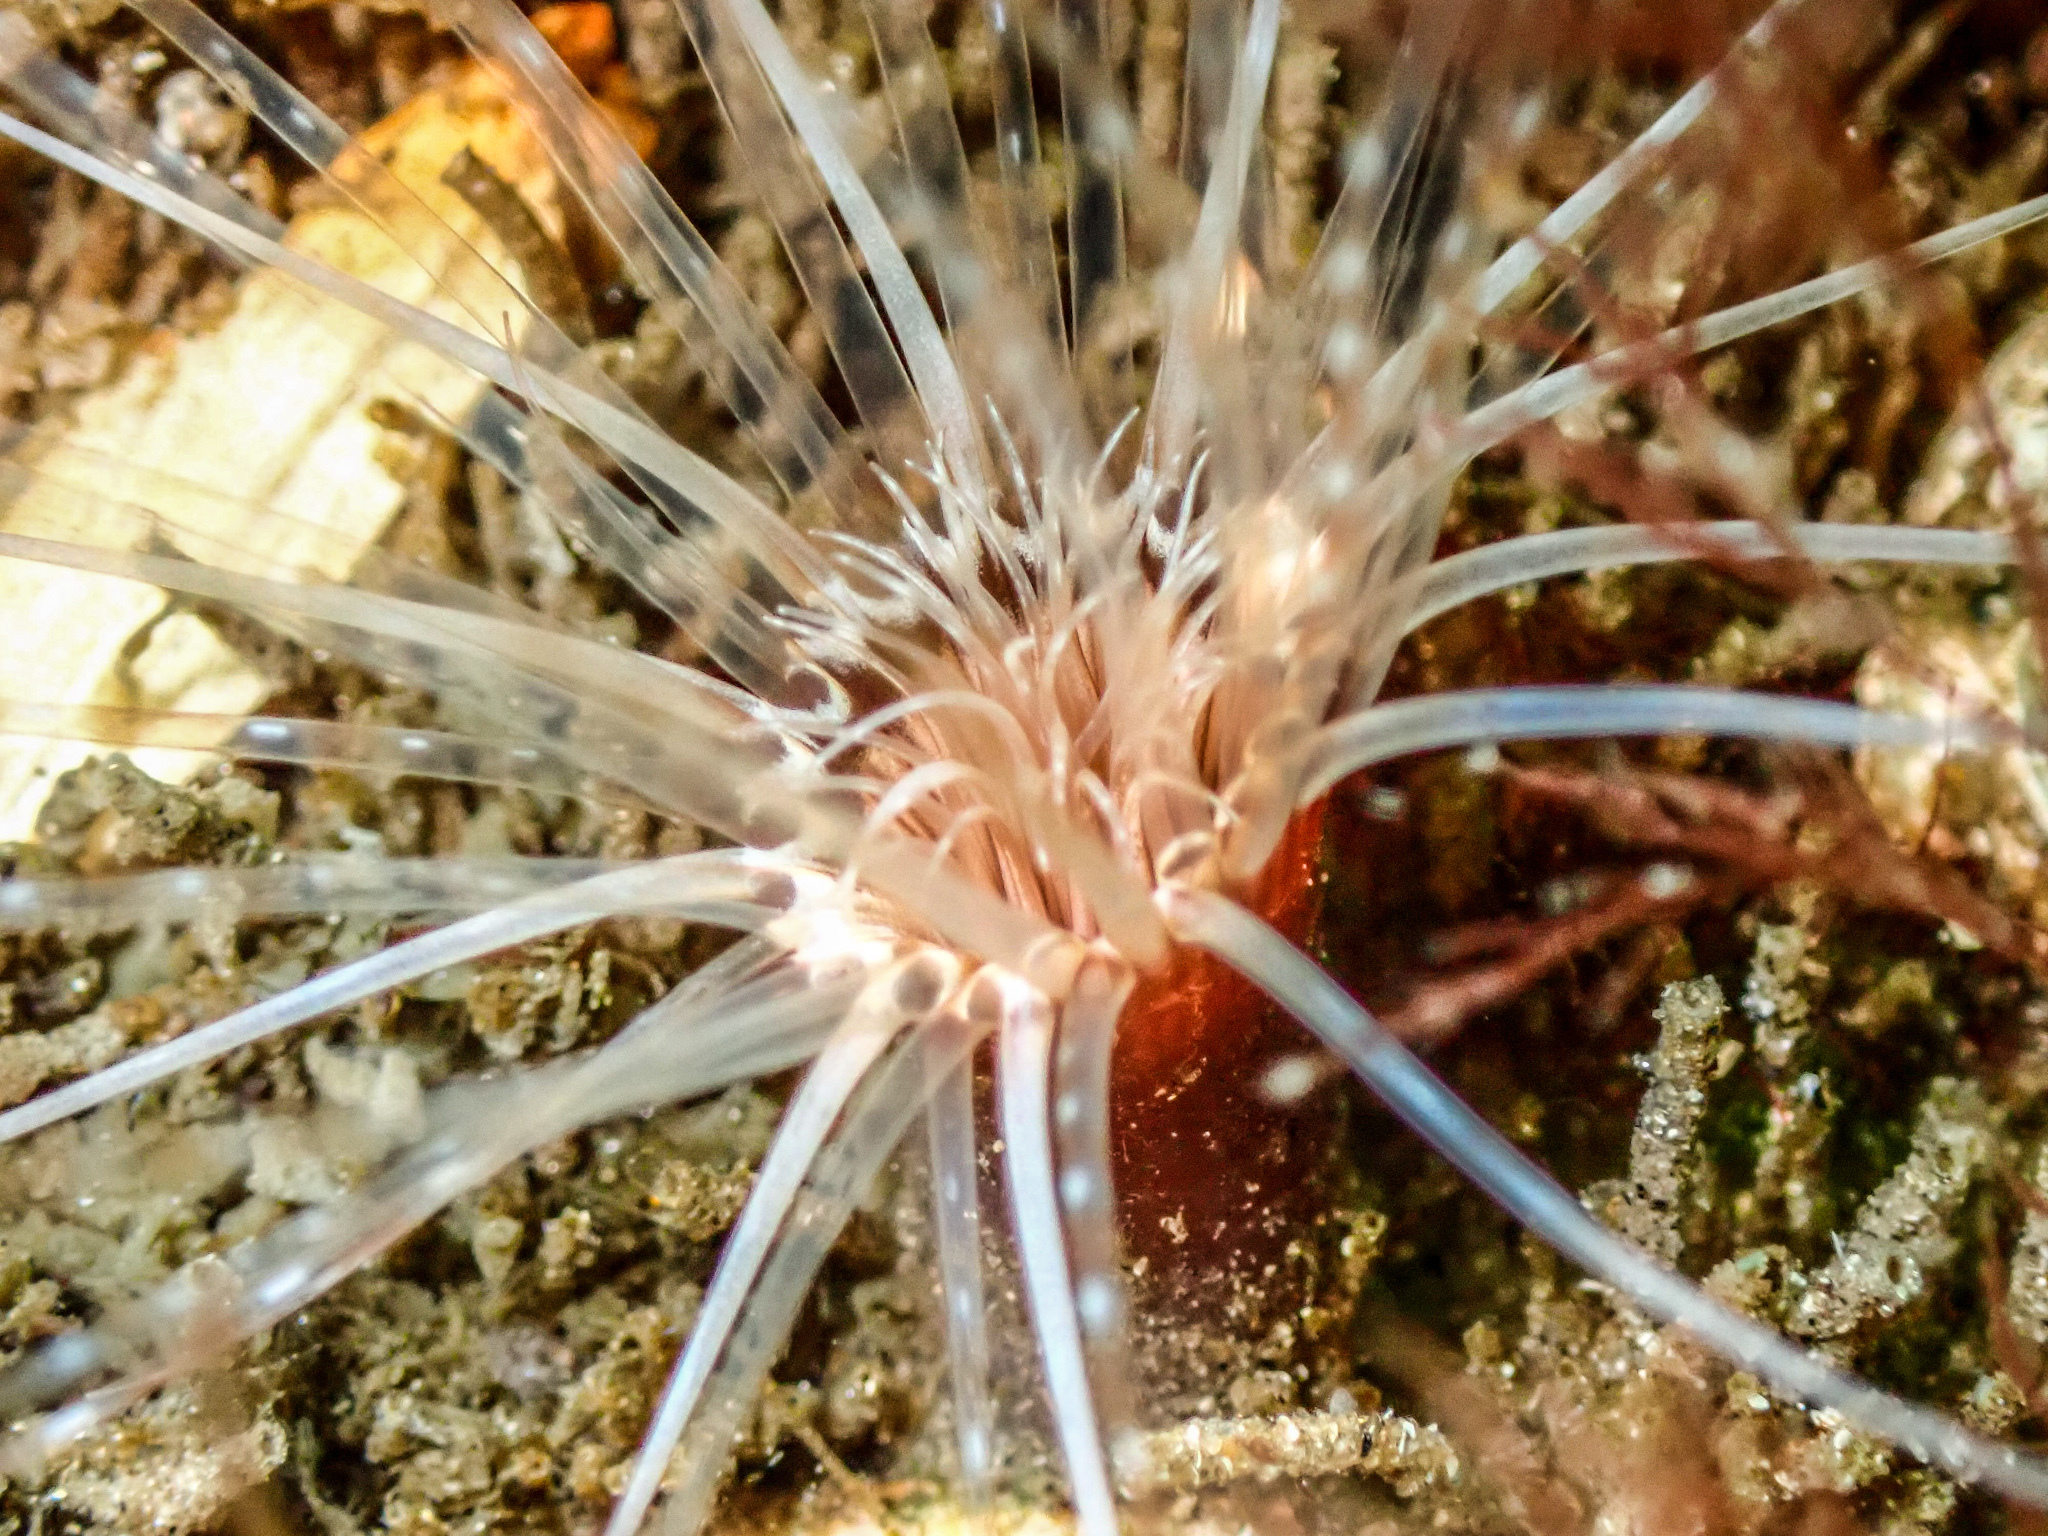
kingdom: Animalia
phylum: Cnidaria
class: Anthozoa
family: Cerianthidae
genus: Synarachnactis
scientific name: Synarachnactis
